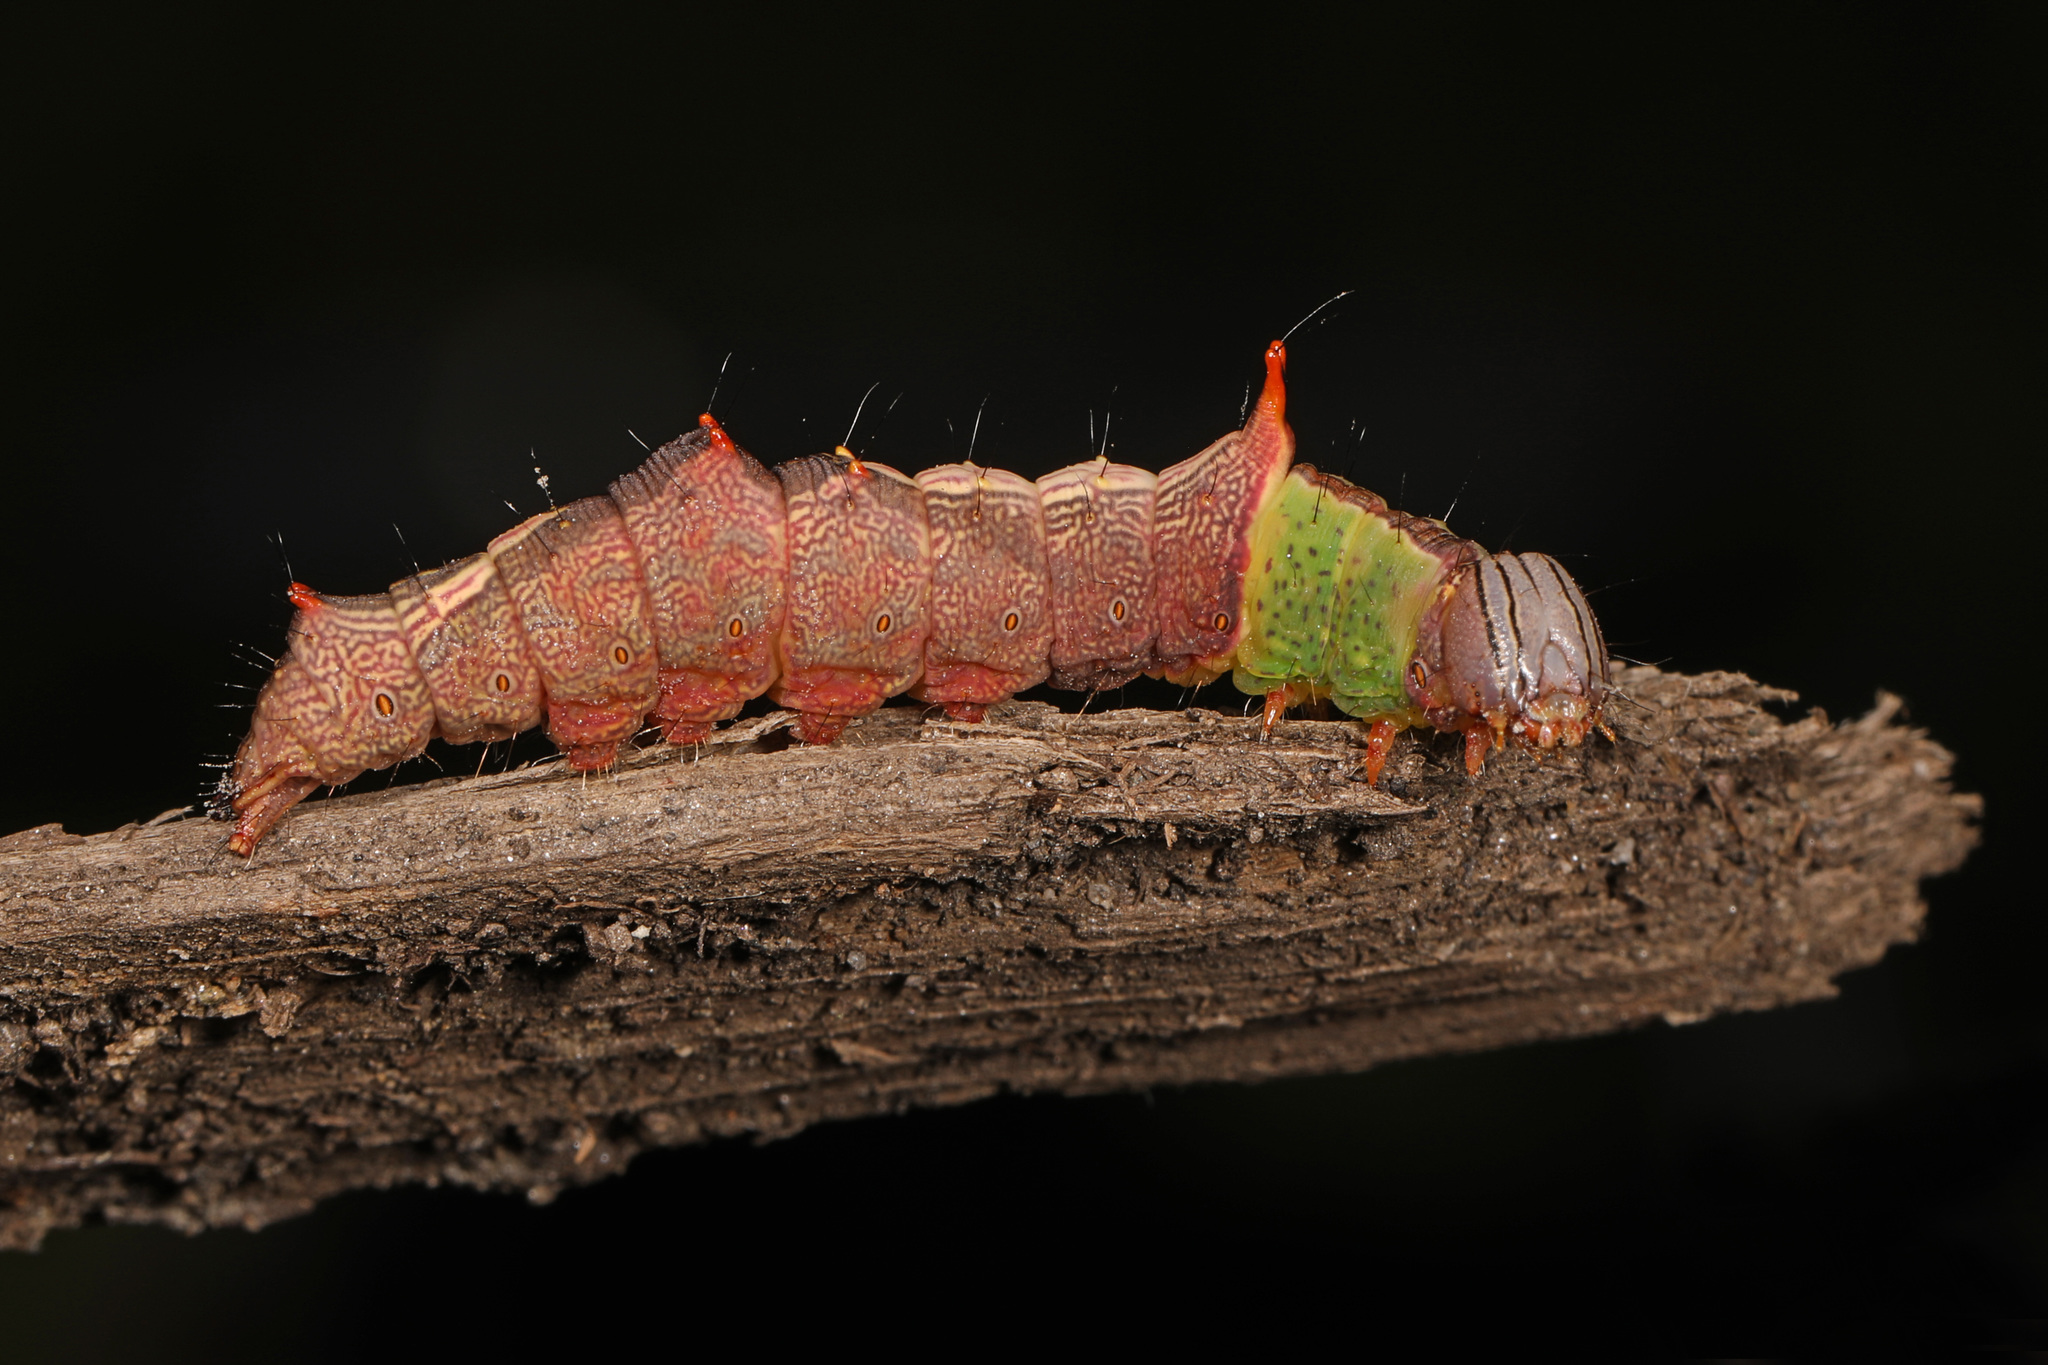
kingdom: Animalia
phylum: Arthropoda
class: Insecta
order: Lepidoptera
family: Notodontidae
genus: Schizura
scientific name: Schizura ipomaeae
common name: Morning-glory prominent
